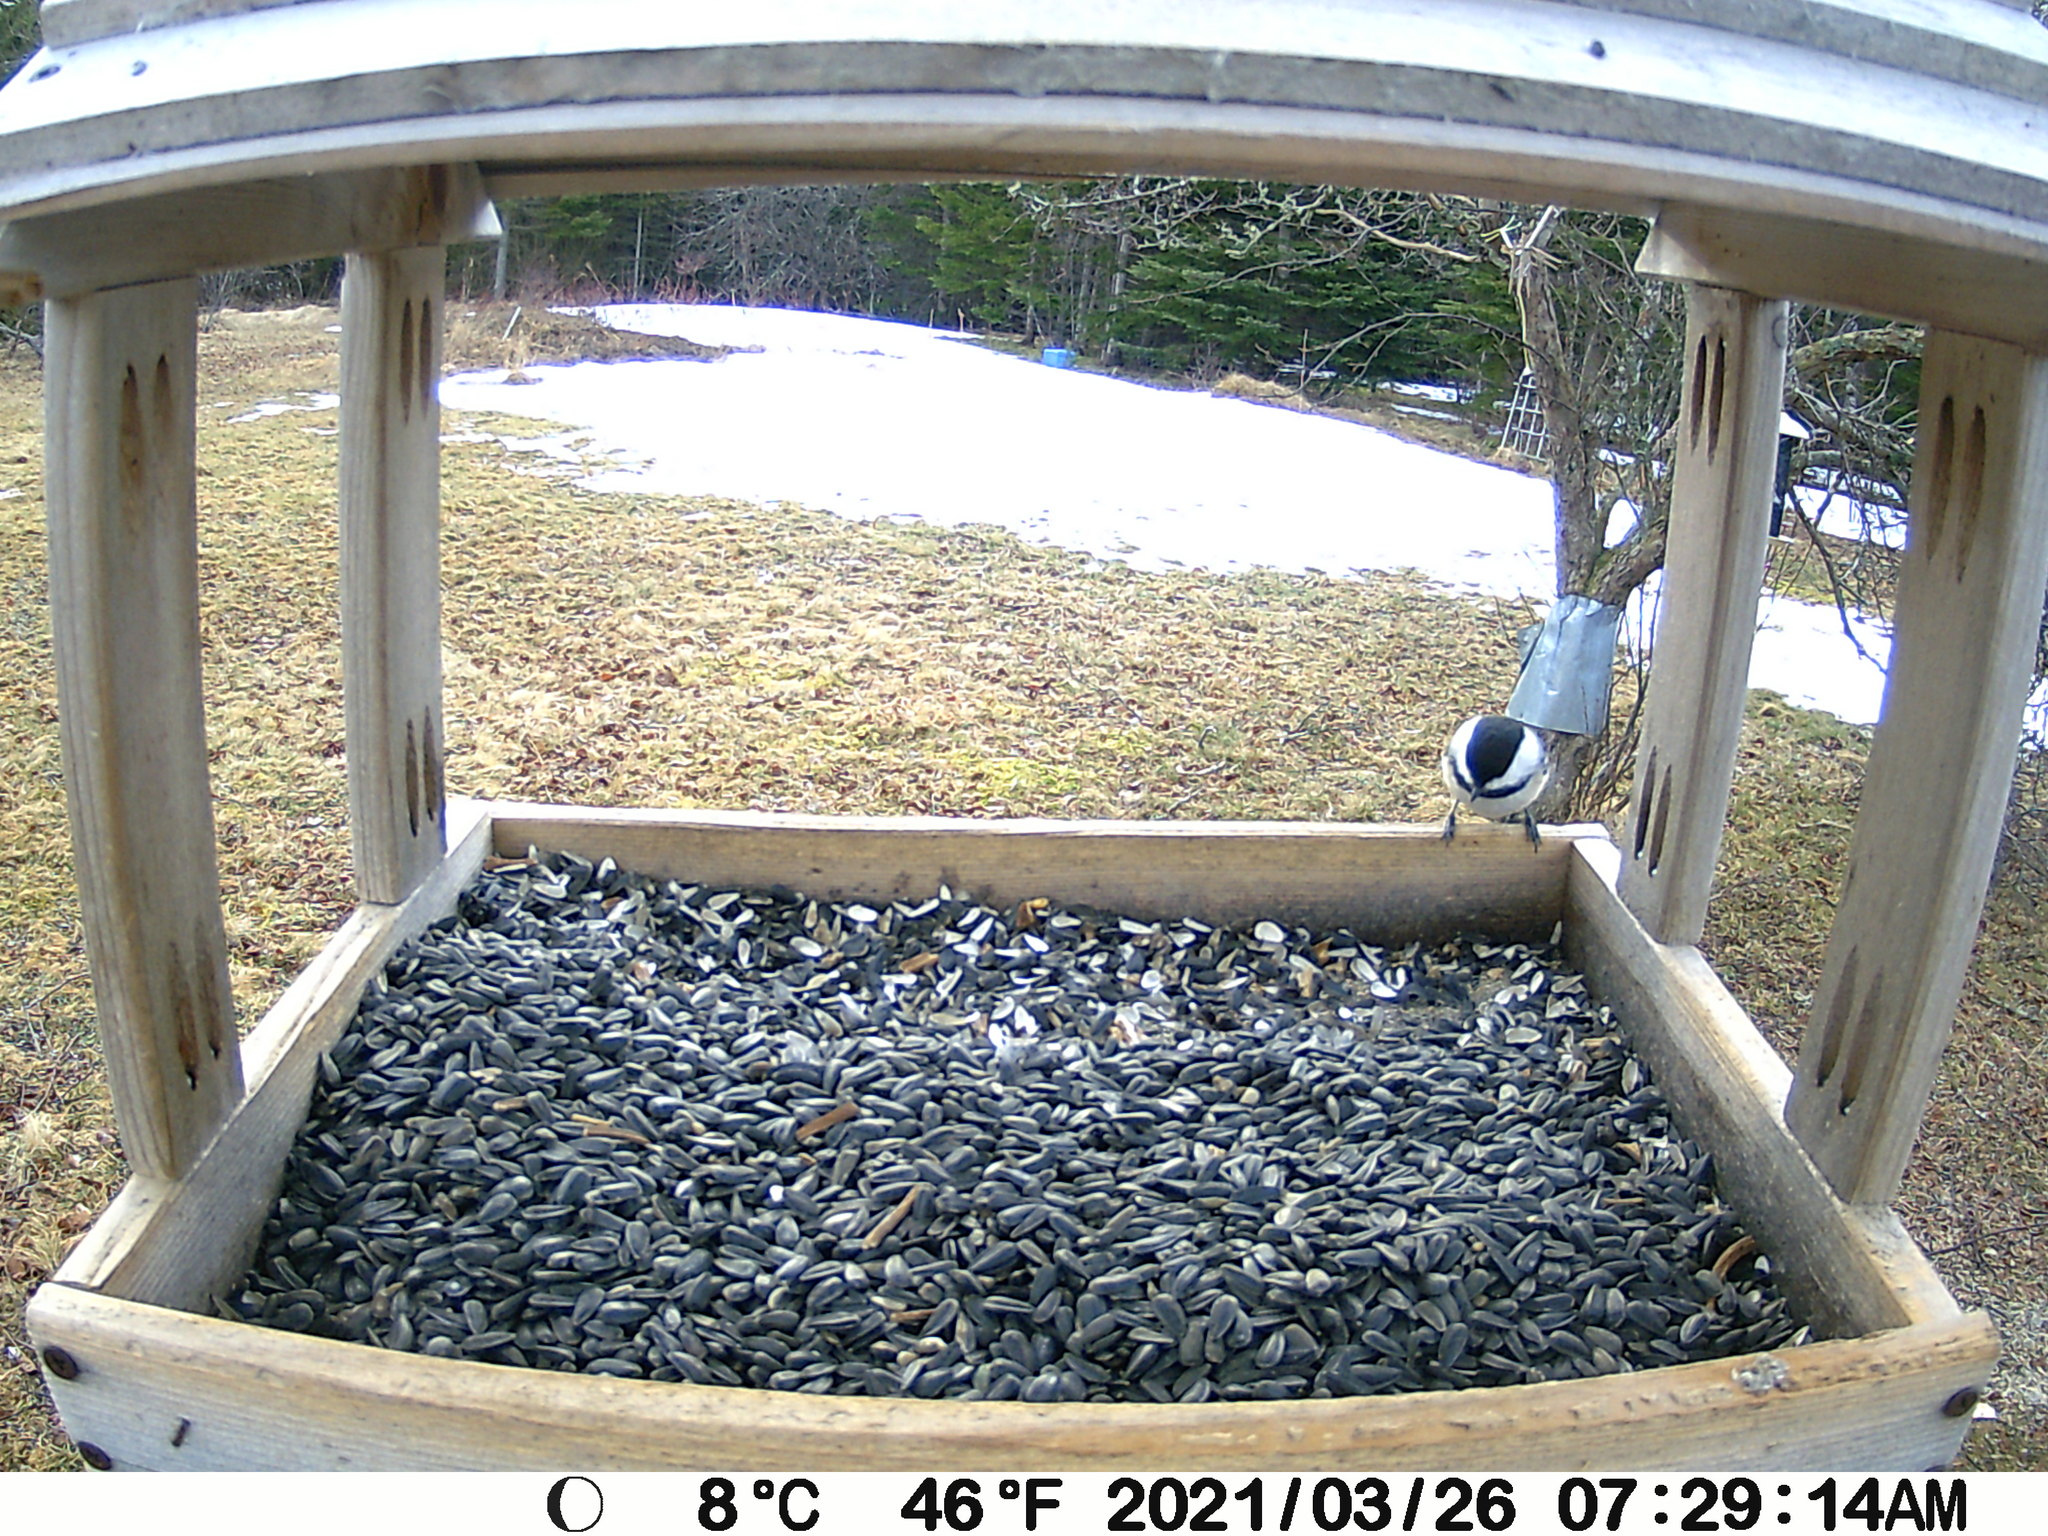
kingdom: Animalia
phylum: Chordata
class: Aves
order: Passeriformes
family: Paridae
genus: Poecile
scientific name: Poecile atricapillus
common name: Black-capped chickadee
